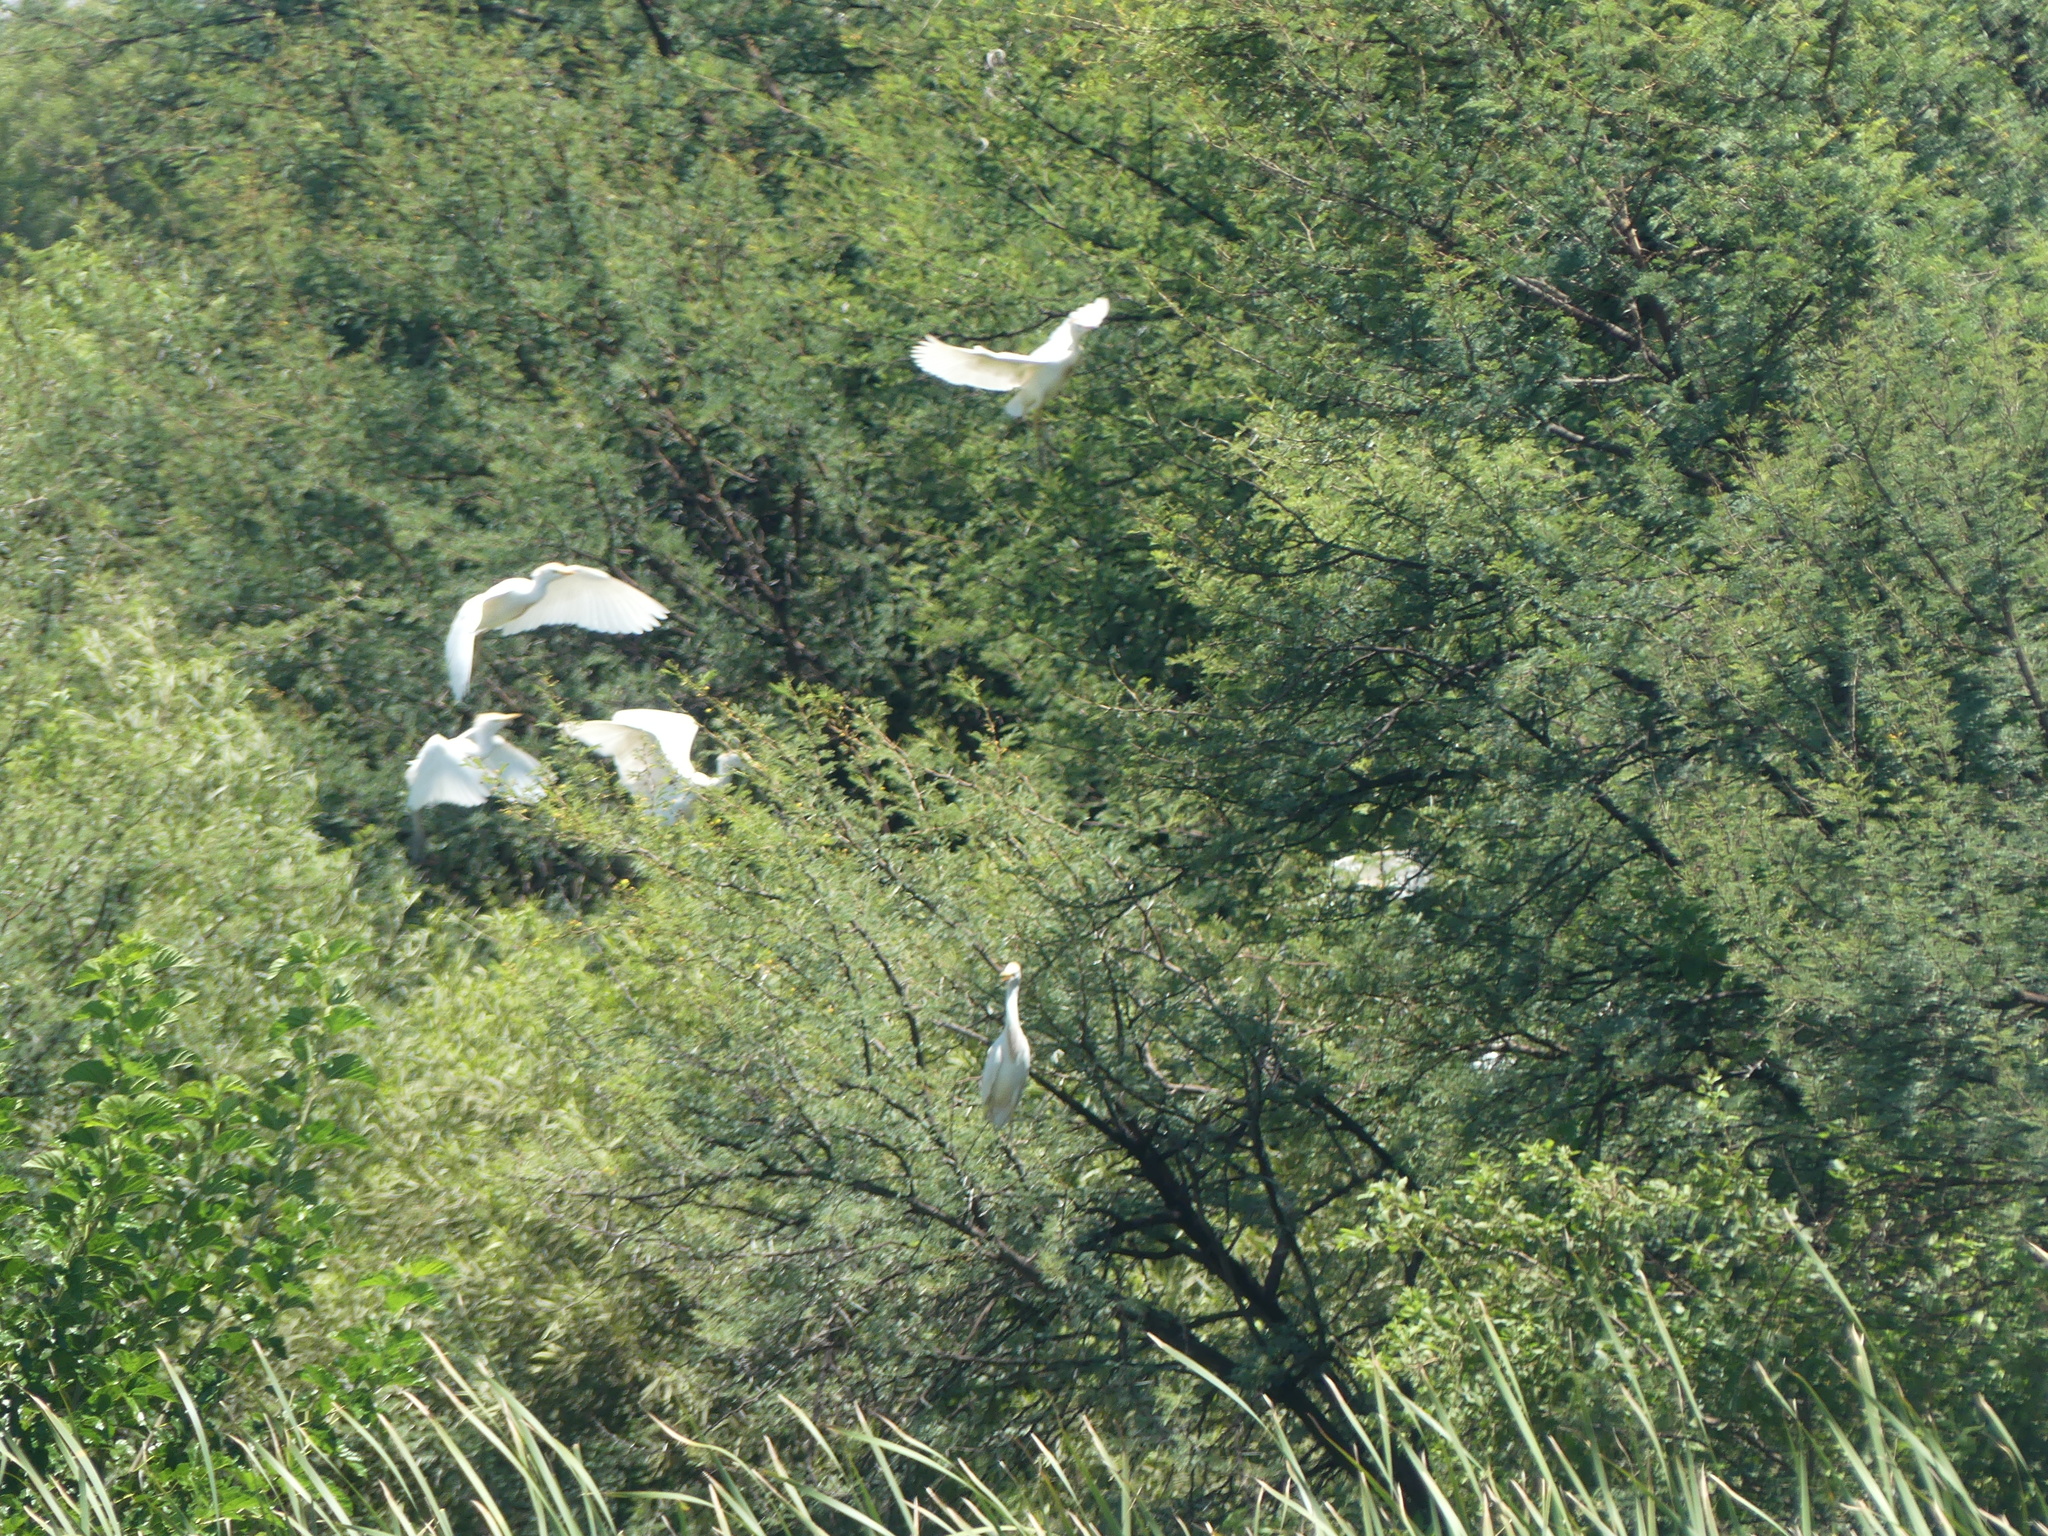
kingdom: Animalia
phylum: Chordata
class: Aves
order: Pelecaniformes
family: Ardeidae
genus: Bubulcus
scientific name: Bubulcus ibis
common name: Cattle egret
